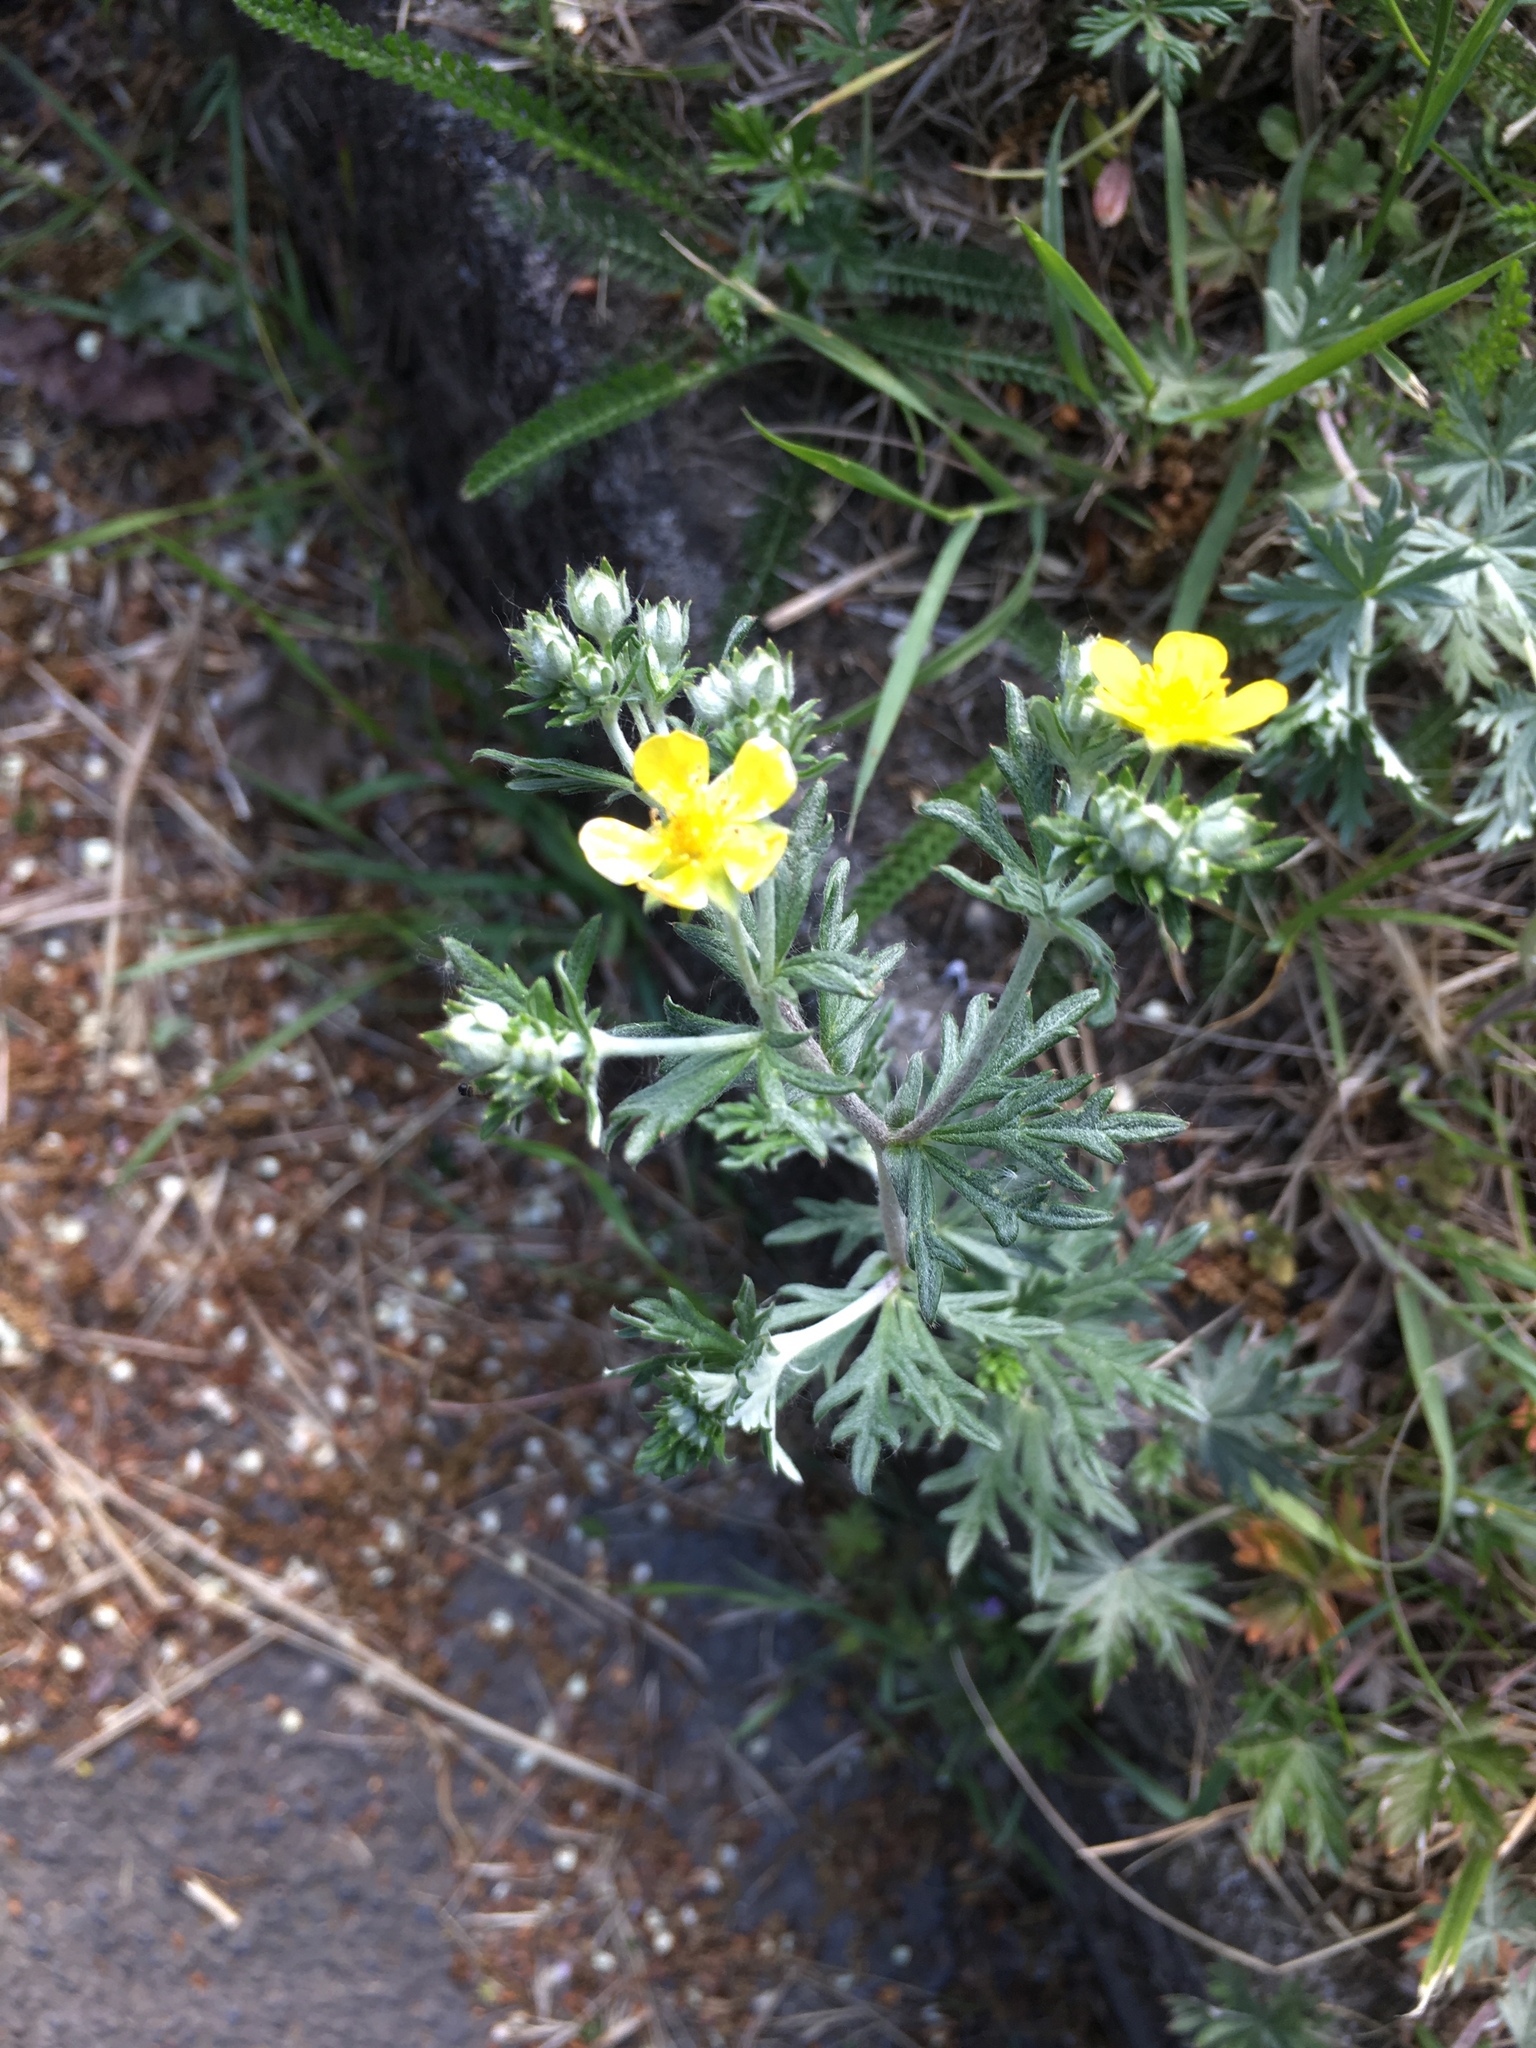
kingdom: Plantae
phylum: Tracheophyta
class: Magnoliopsida
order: Rosales
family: Rosaceae
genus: Potentilla
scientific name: Potentilla argentea
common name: Hoary cinquefoil
